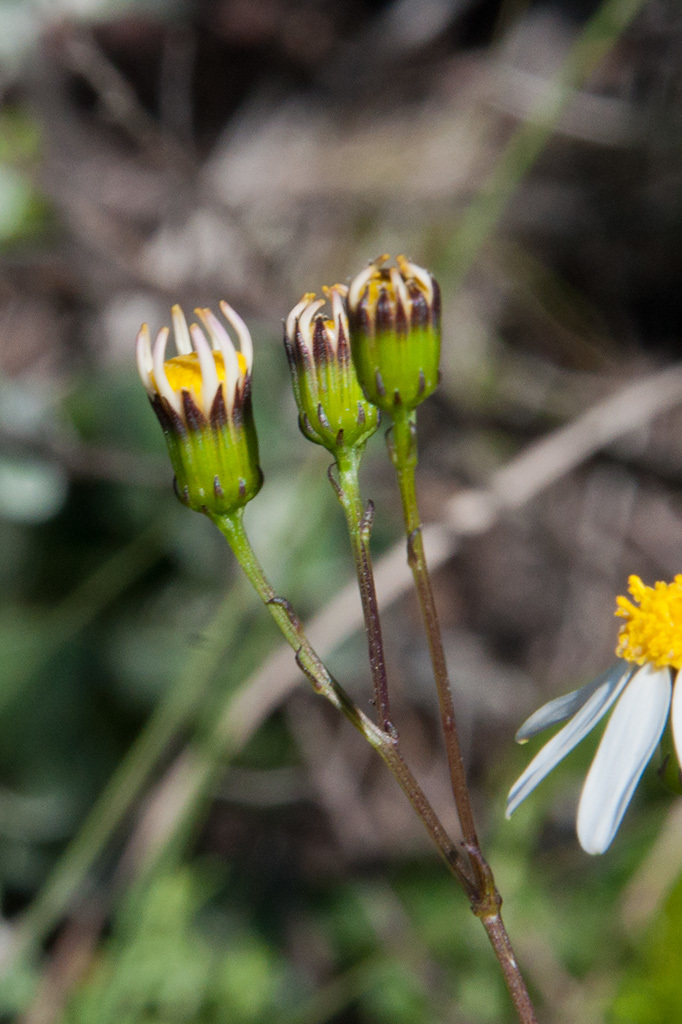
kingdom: Plantae
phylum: Tracheophyta
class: Magnoliopsida
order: Asterales
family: Asteraceae
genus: Senecio
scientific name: Senecio umbellatus
